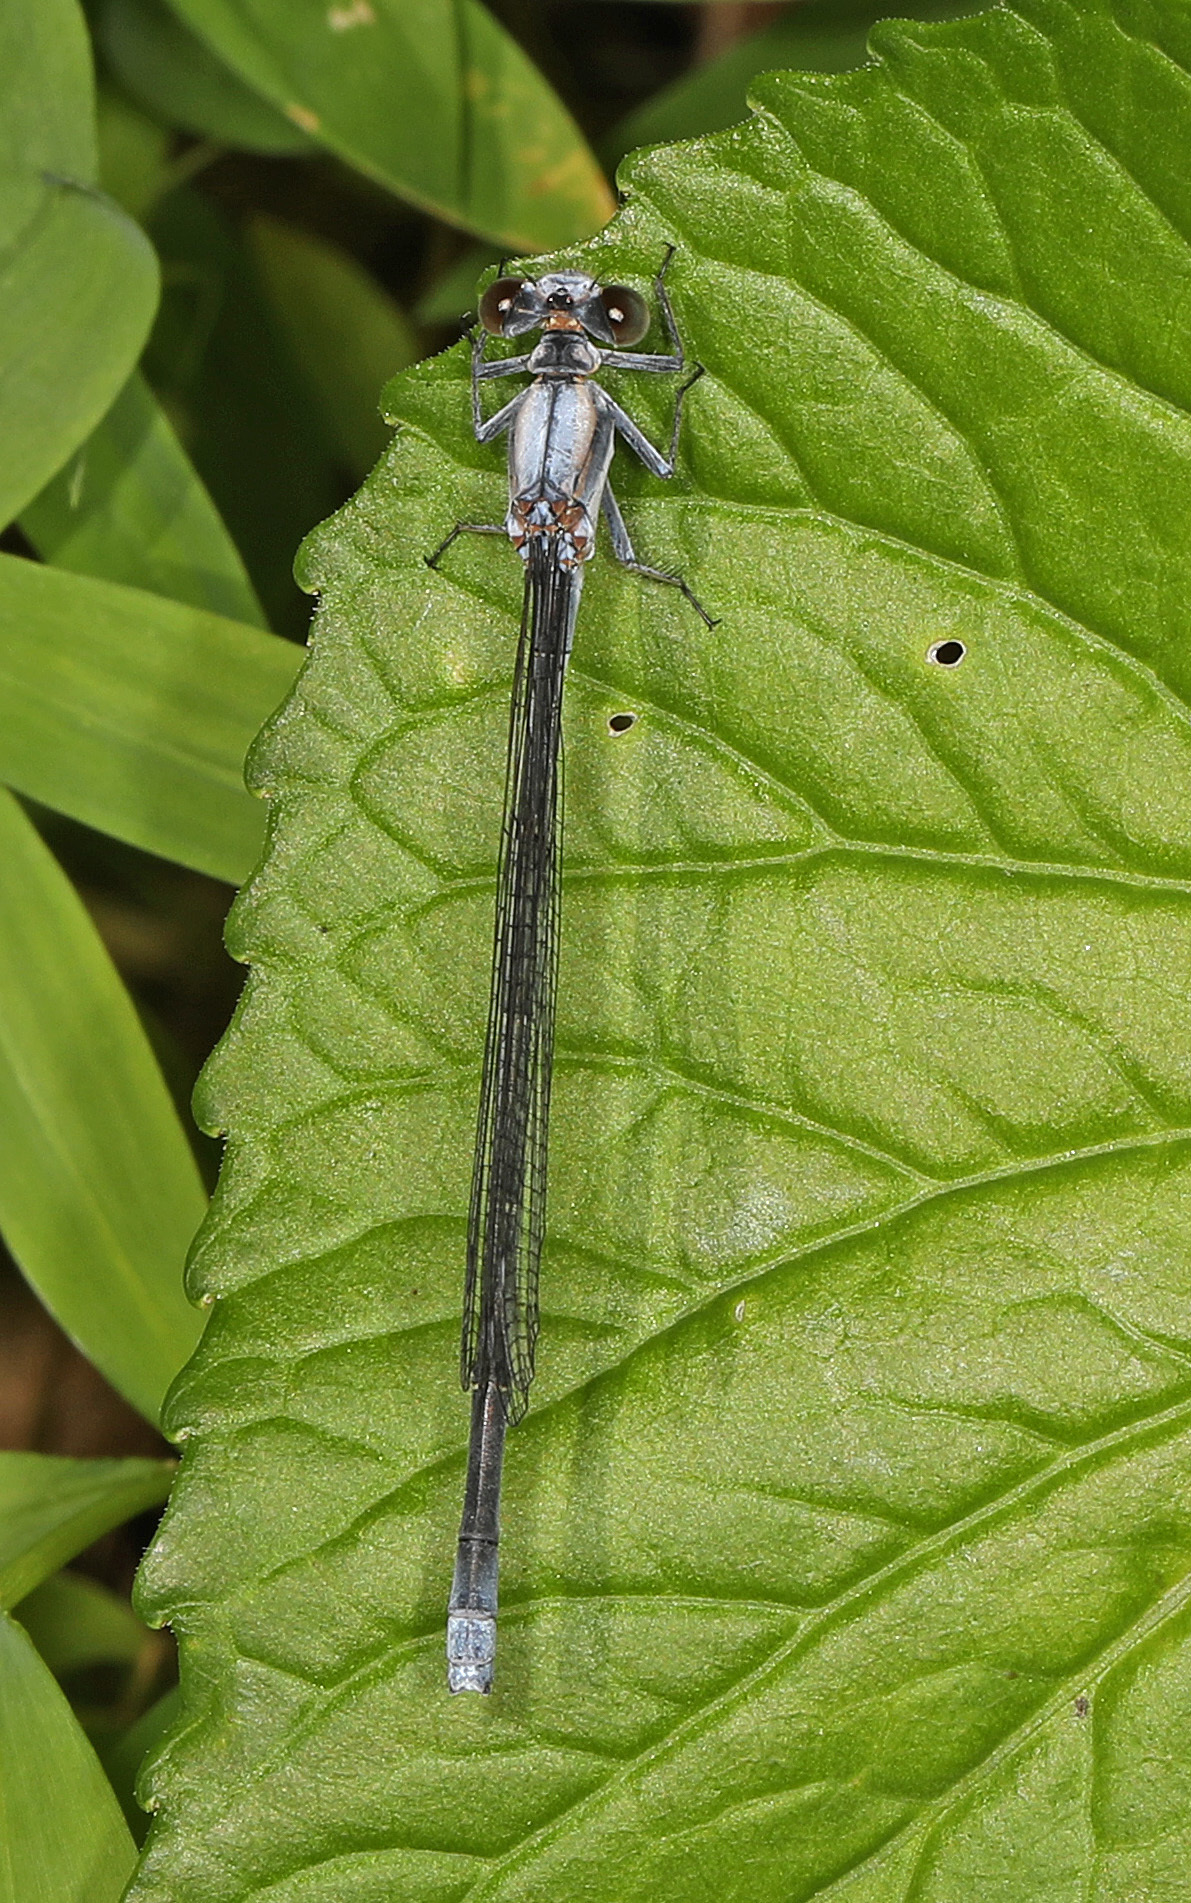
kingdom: Animalia
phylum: Arthropoda
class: Insecta
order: Odonata
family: Coenagrionidae
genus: Argia
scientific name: Argia moesta
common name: Powdered dancer
